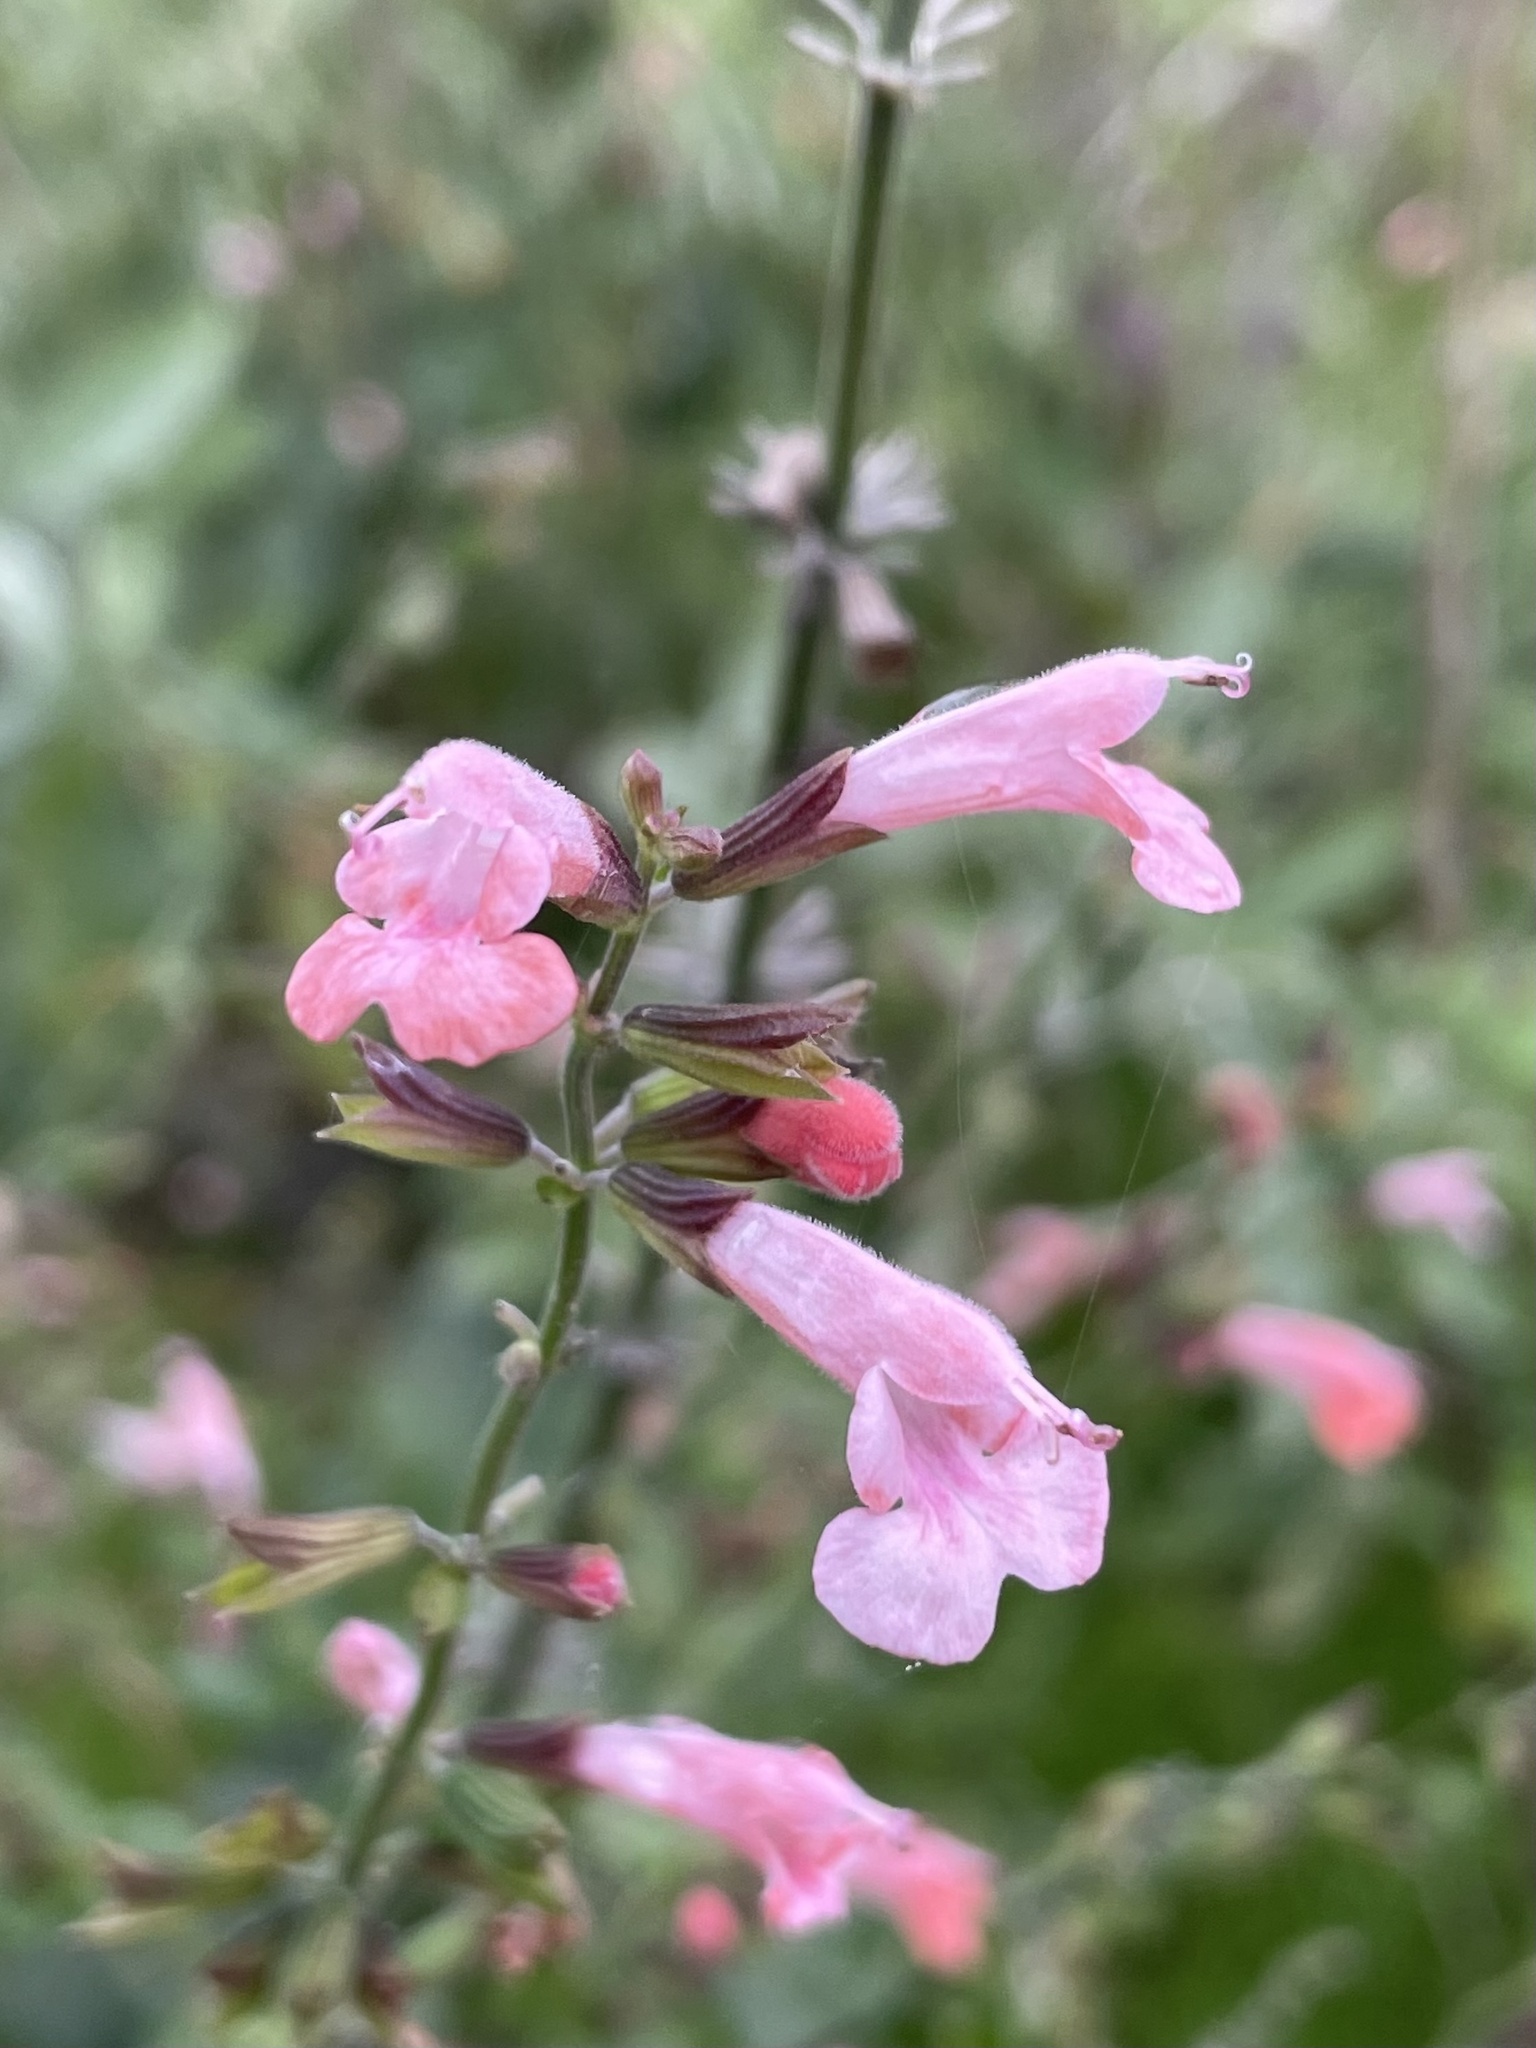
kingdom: Plantae
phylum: Tracheophyta
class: Magnoliopsida
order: Lamiales
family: Lamiaceae
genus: Salvia
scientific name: Salvia coccinea
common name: Blood sage
